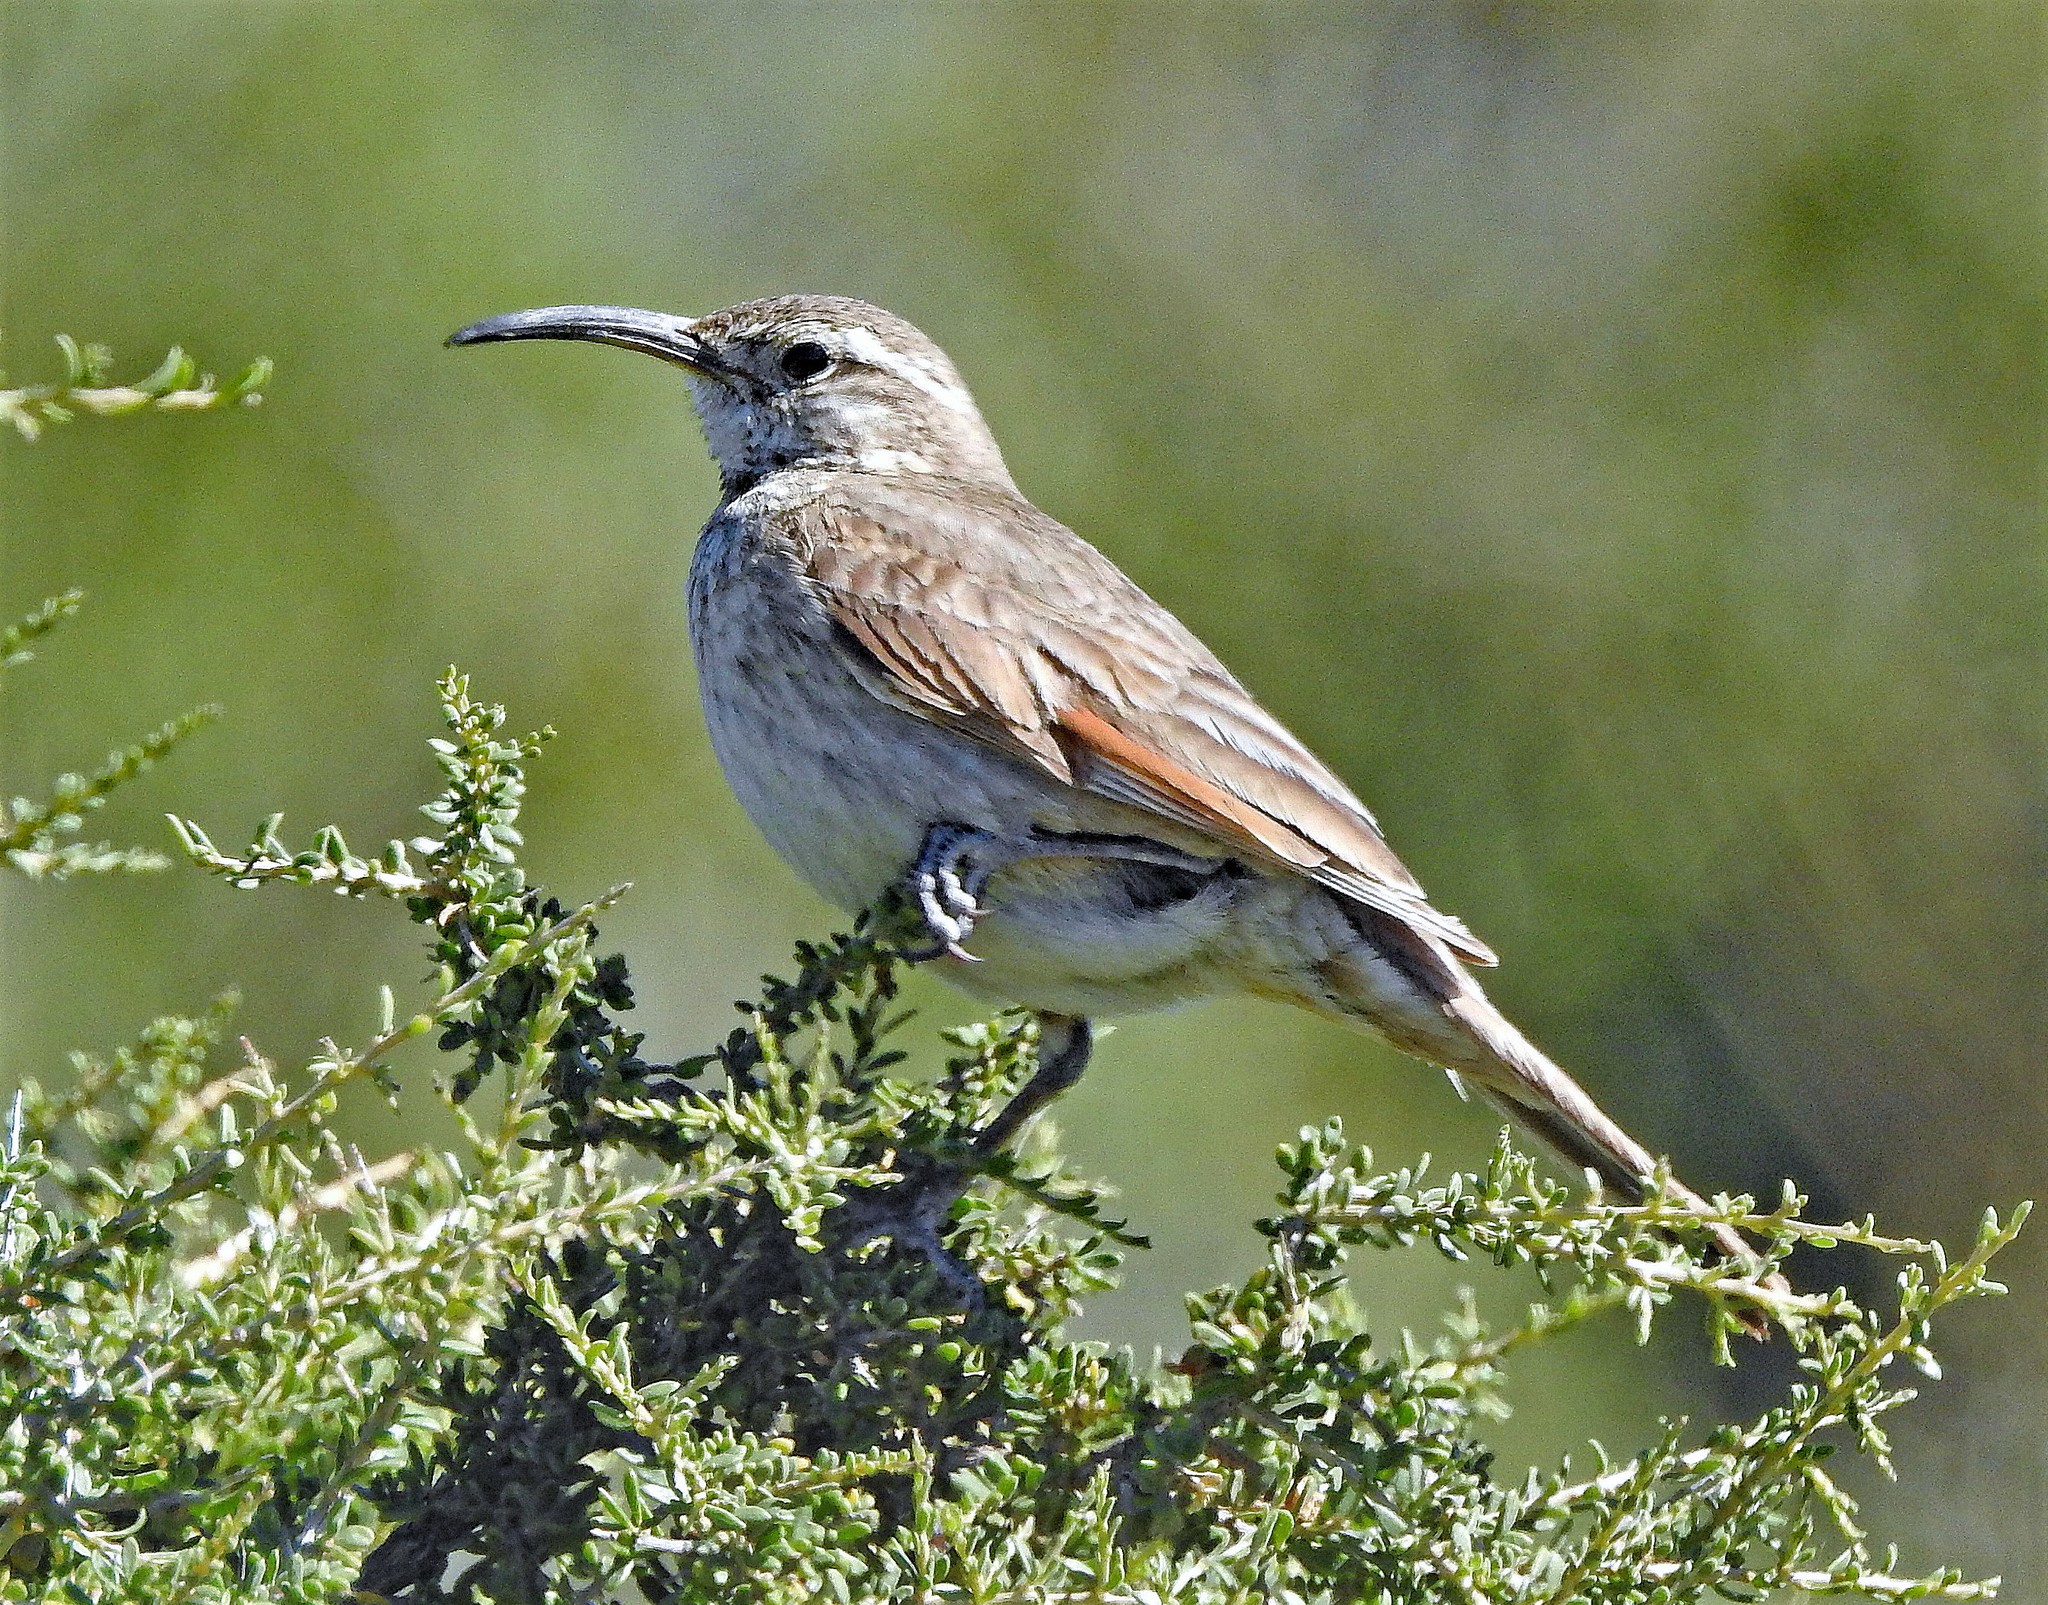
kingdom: Animalia
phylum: Chordata
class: Aves
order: Passeriformes
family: Furnariidae
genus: Upucerthia
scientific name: Upucerthia dumetaria
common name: Scale-throated earthcreeper
